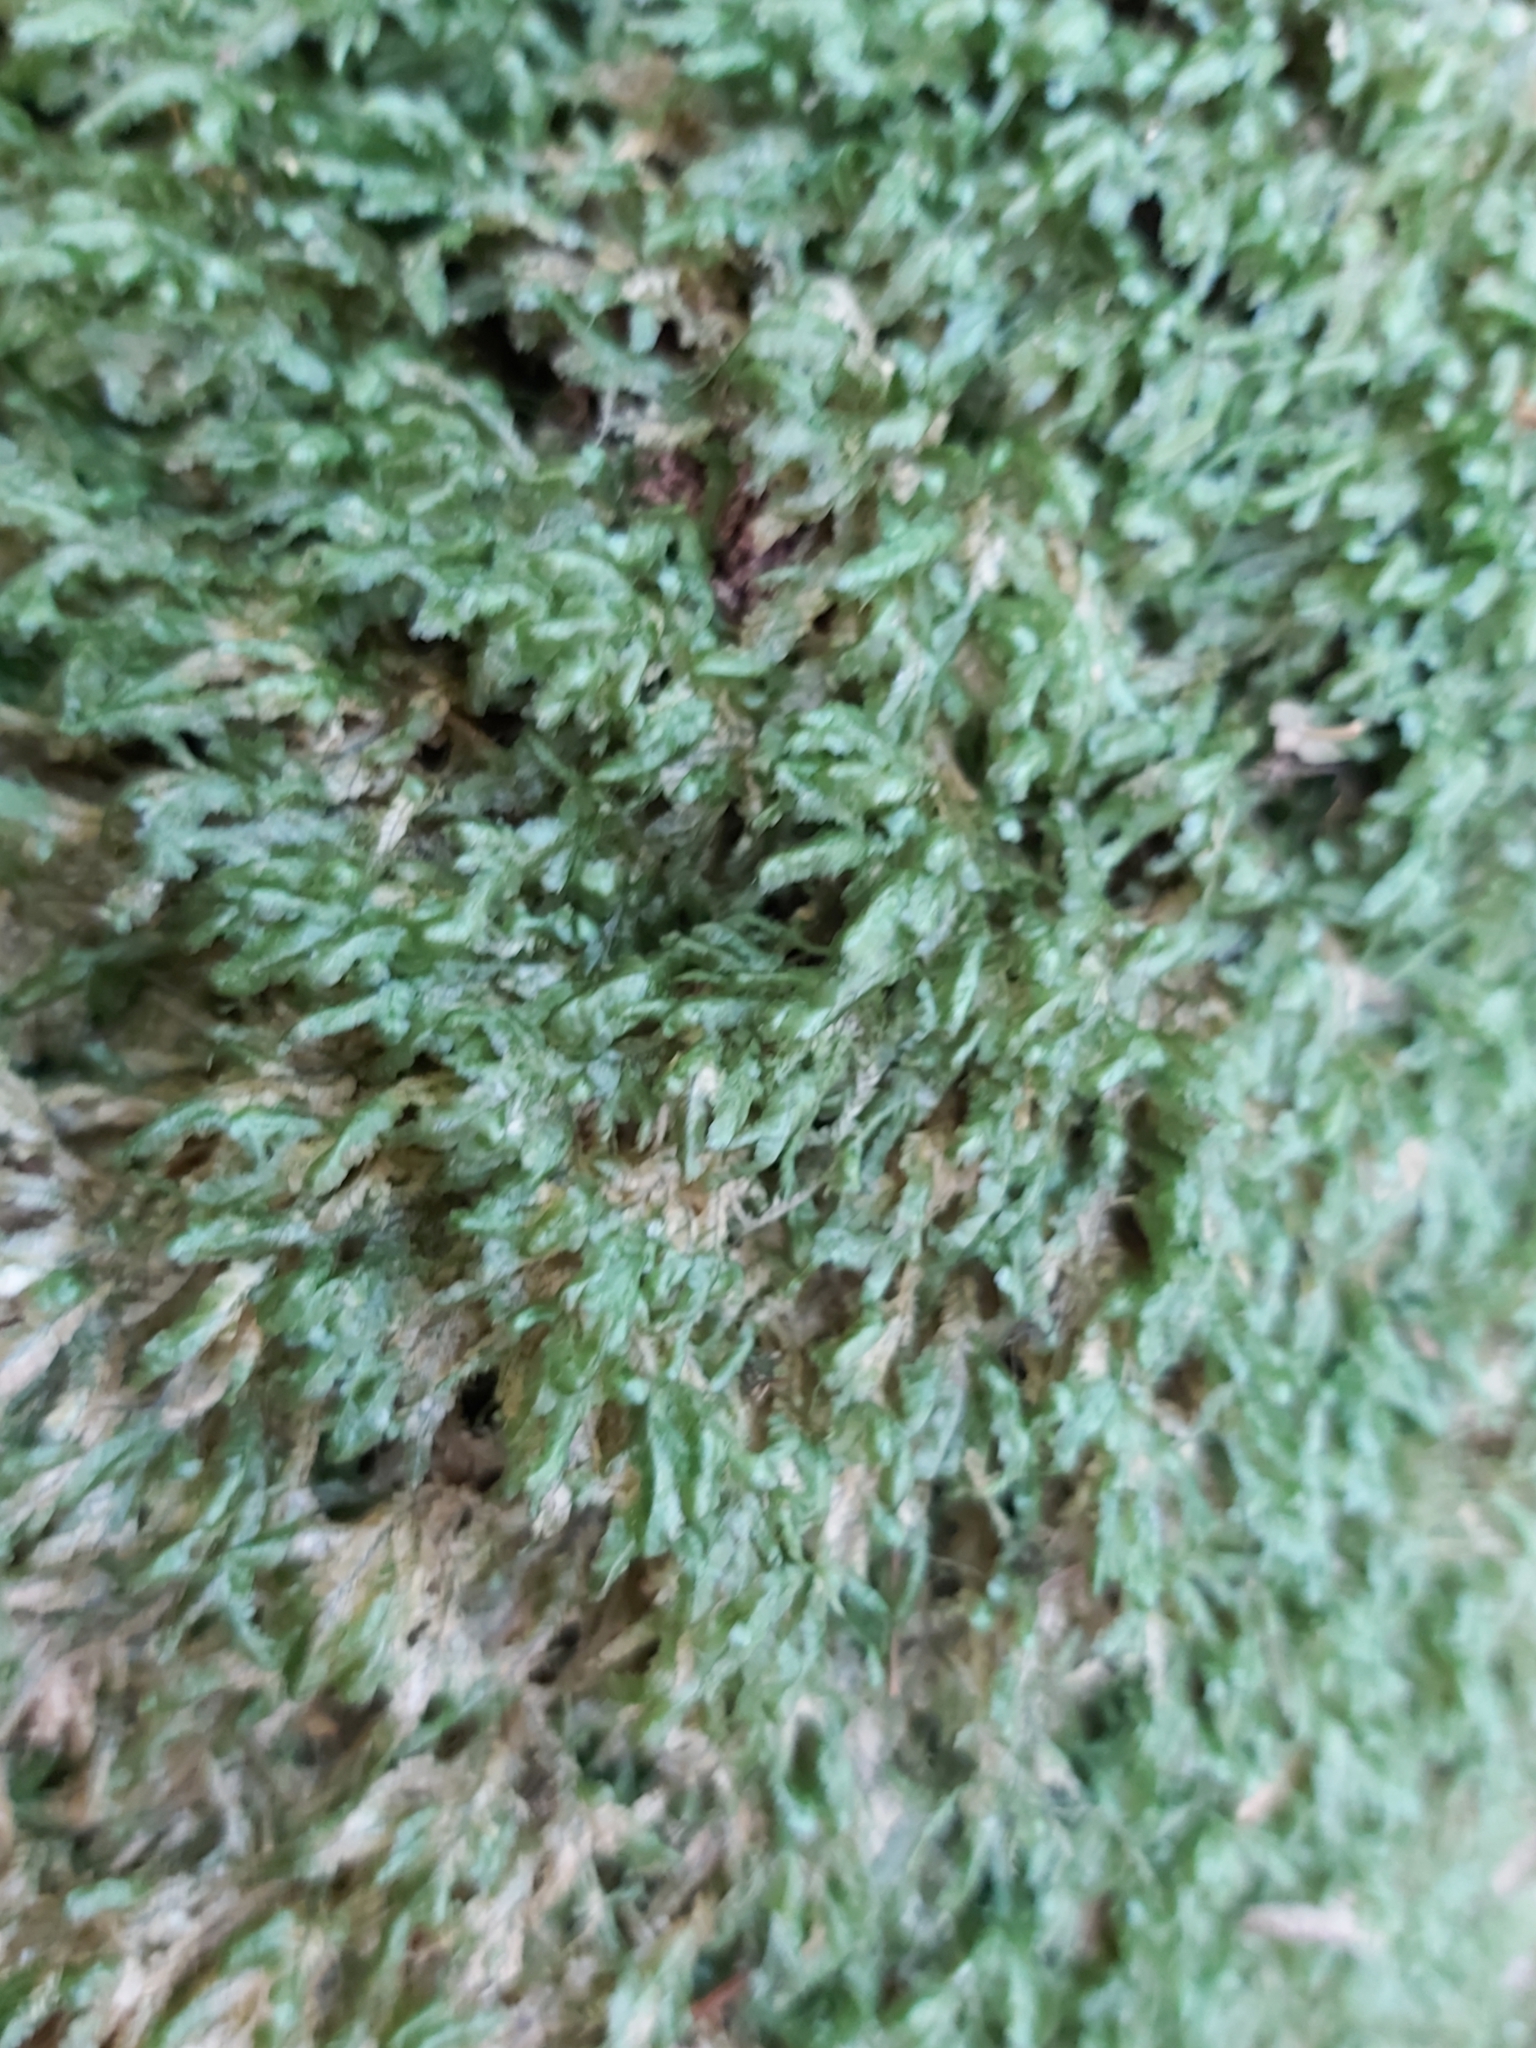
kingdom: Plantae
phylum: Bryophyta
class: Bryopsida
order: Hypnales
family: Neckeraceae
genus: Homalia
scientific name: Homalia trichomanoides
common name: Lime homalia moss
